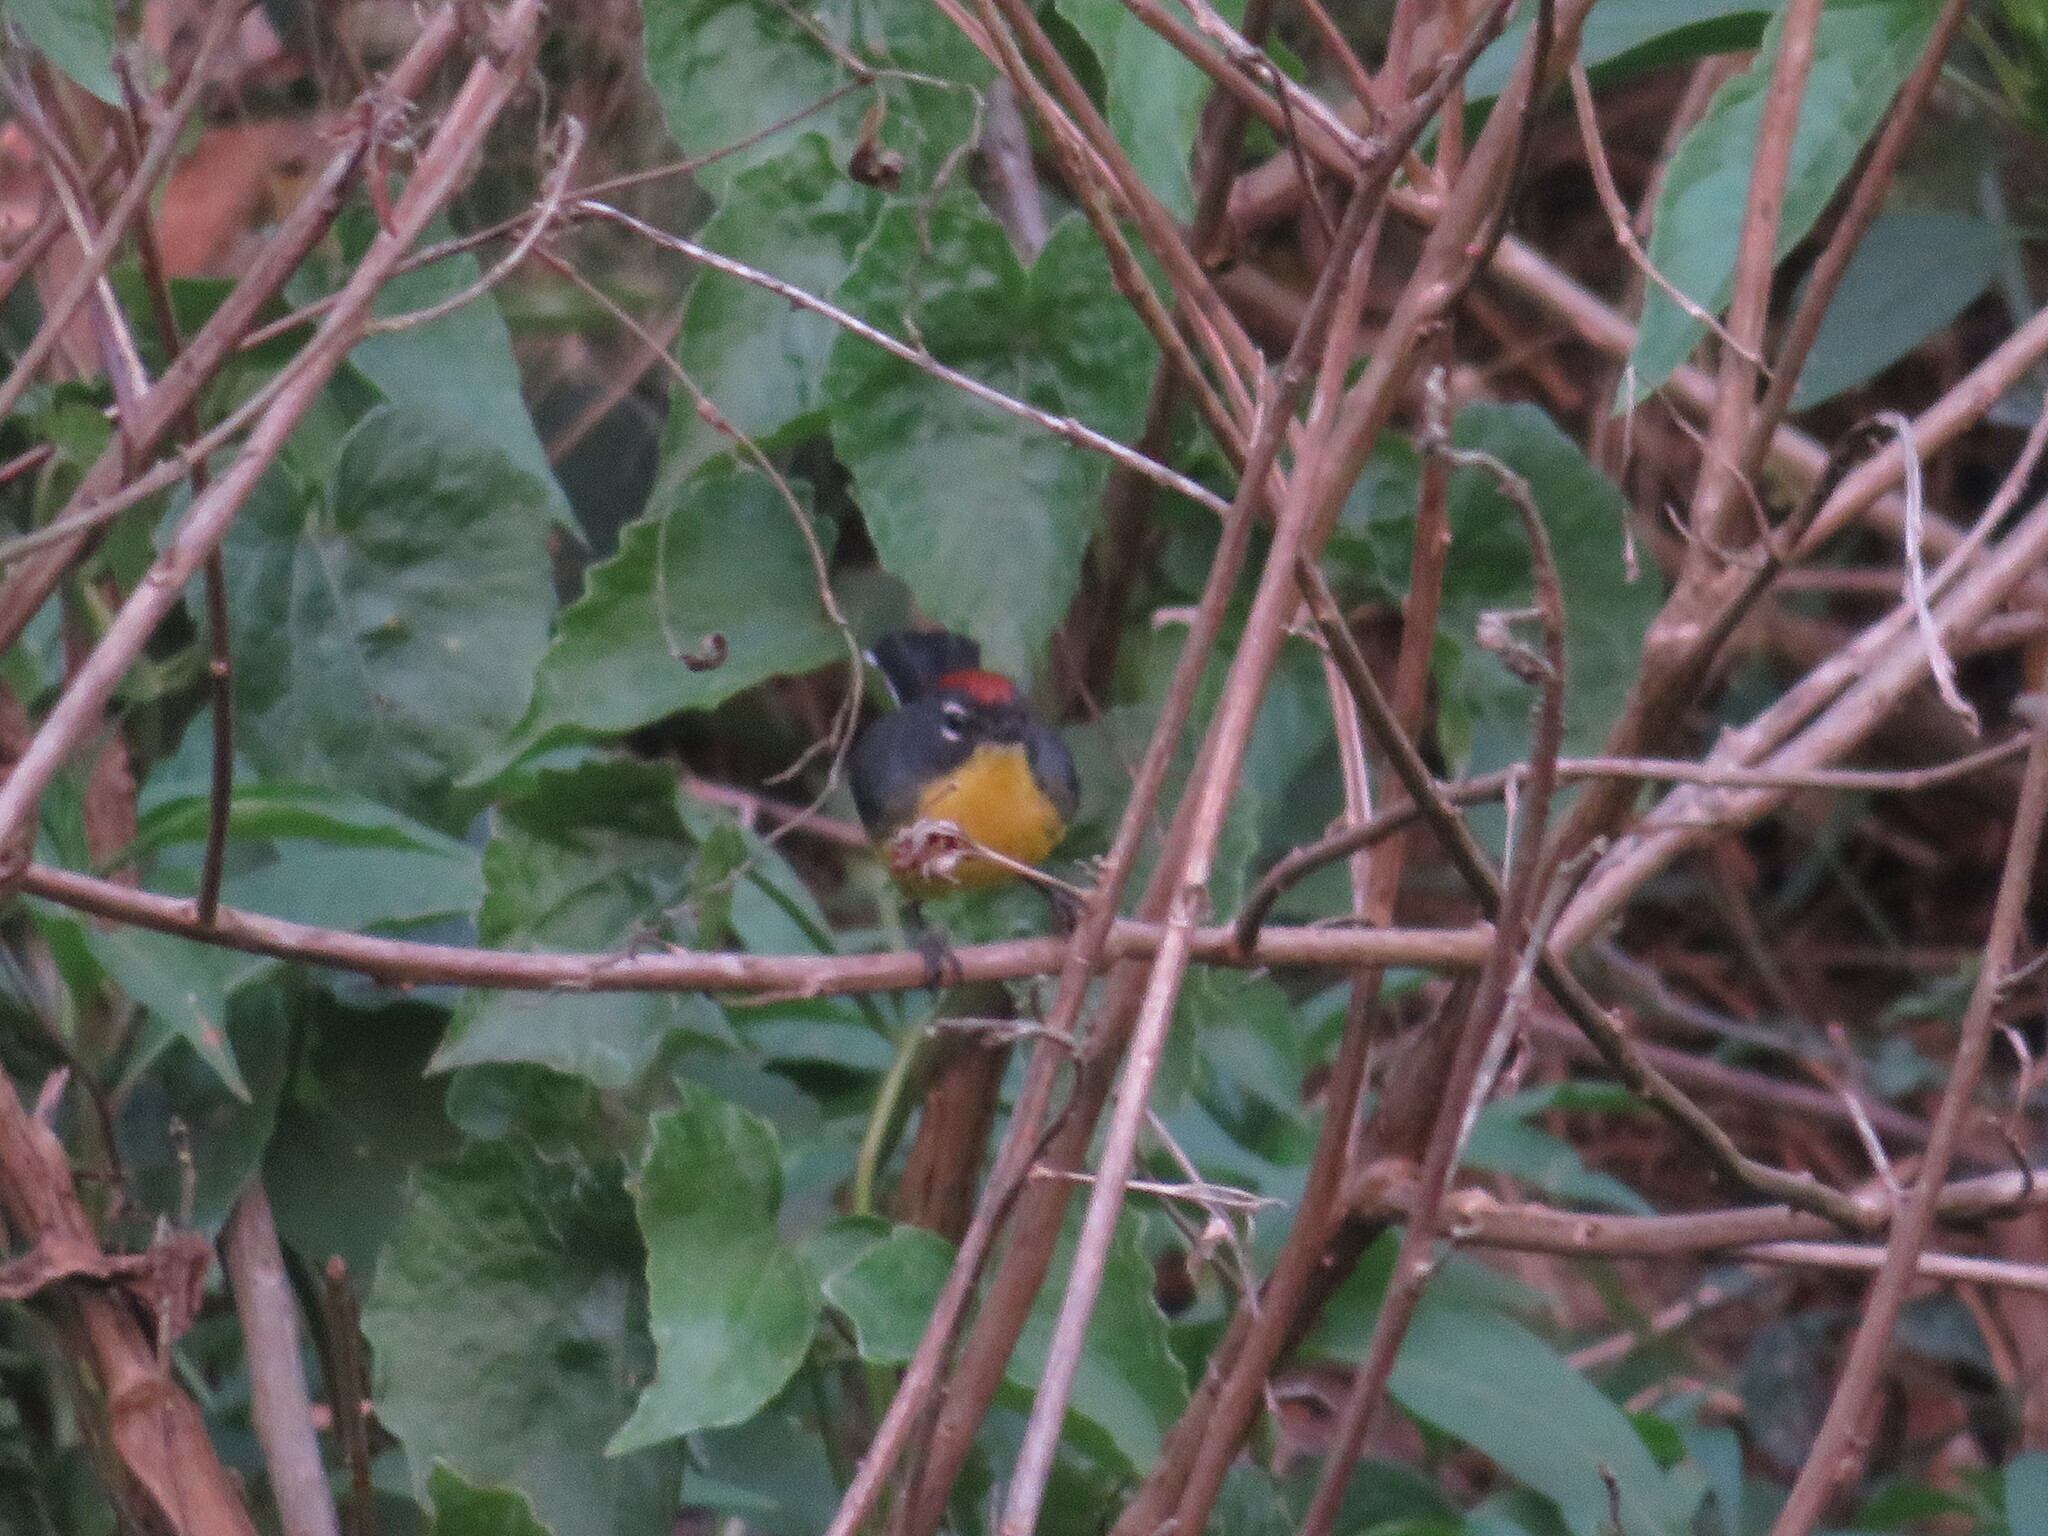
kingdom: Animalia
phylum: Chordata
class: Aves
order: Passeriformes
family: Parulidae
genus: Myioborus
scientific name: Myioborus brunniceps
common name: Brown-capped whitestart
